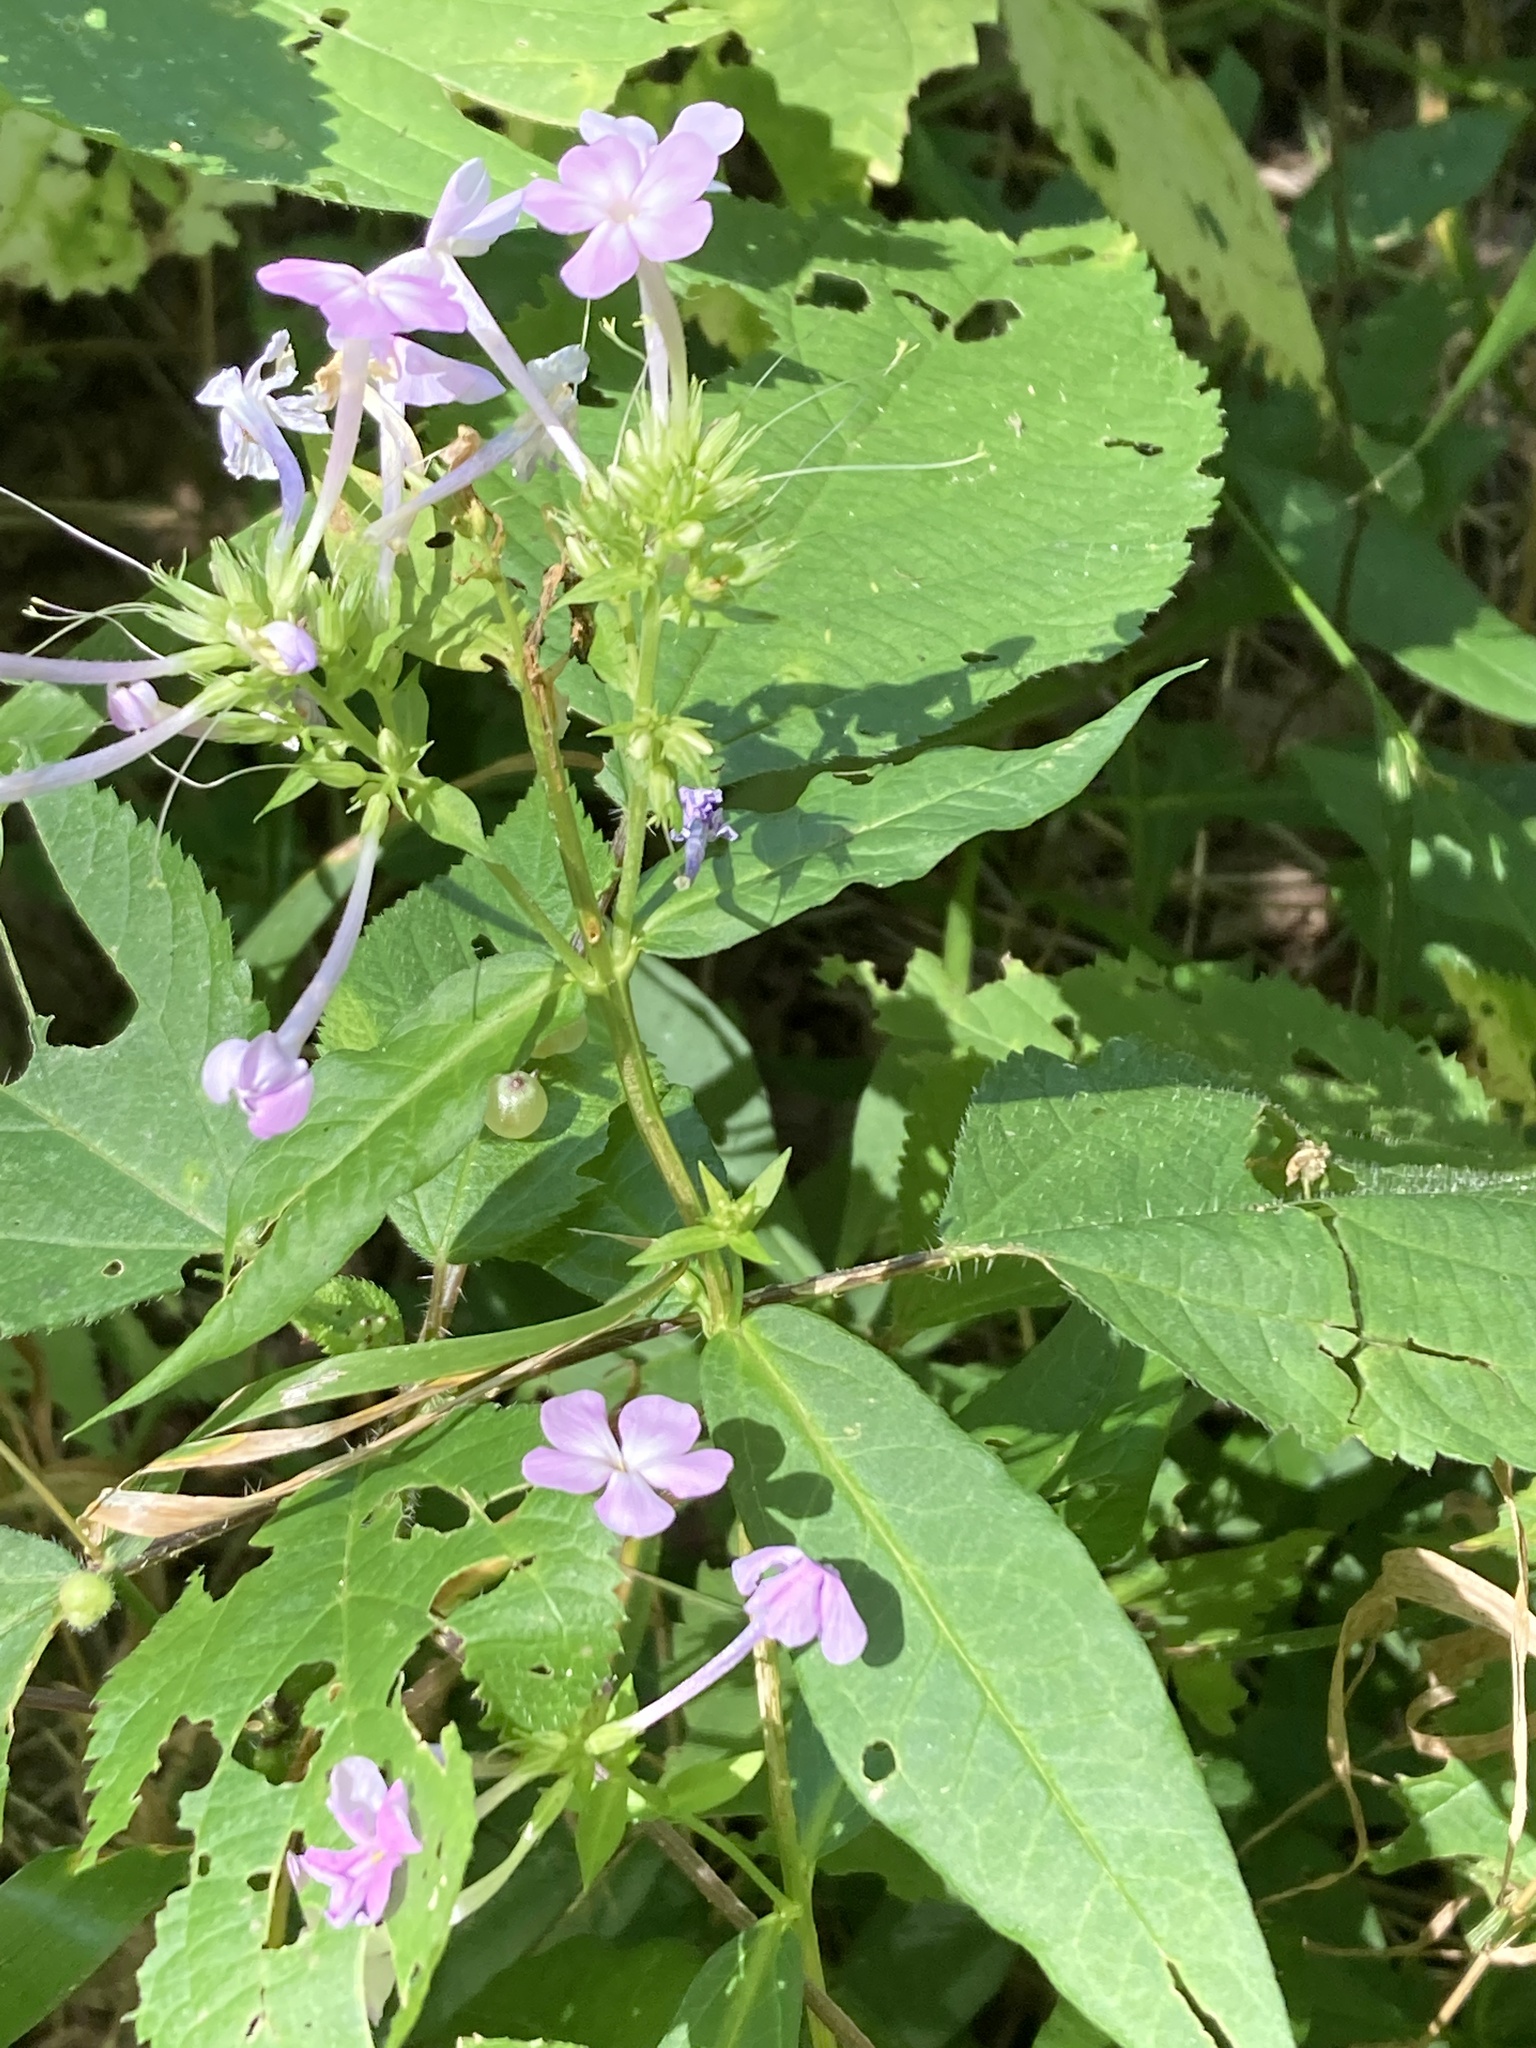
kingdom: Plantae
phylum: Tracheophyta
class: Magnoliopsida
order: Ericales
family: Polemoniaceae
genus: Phlox
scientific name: Phlox paniculata
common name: Fall phlox
